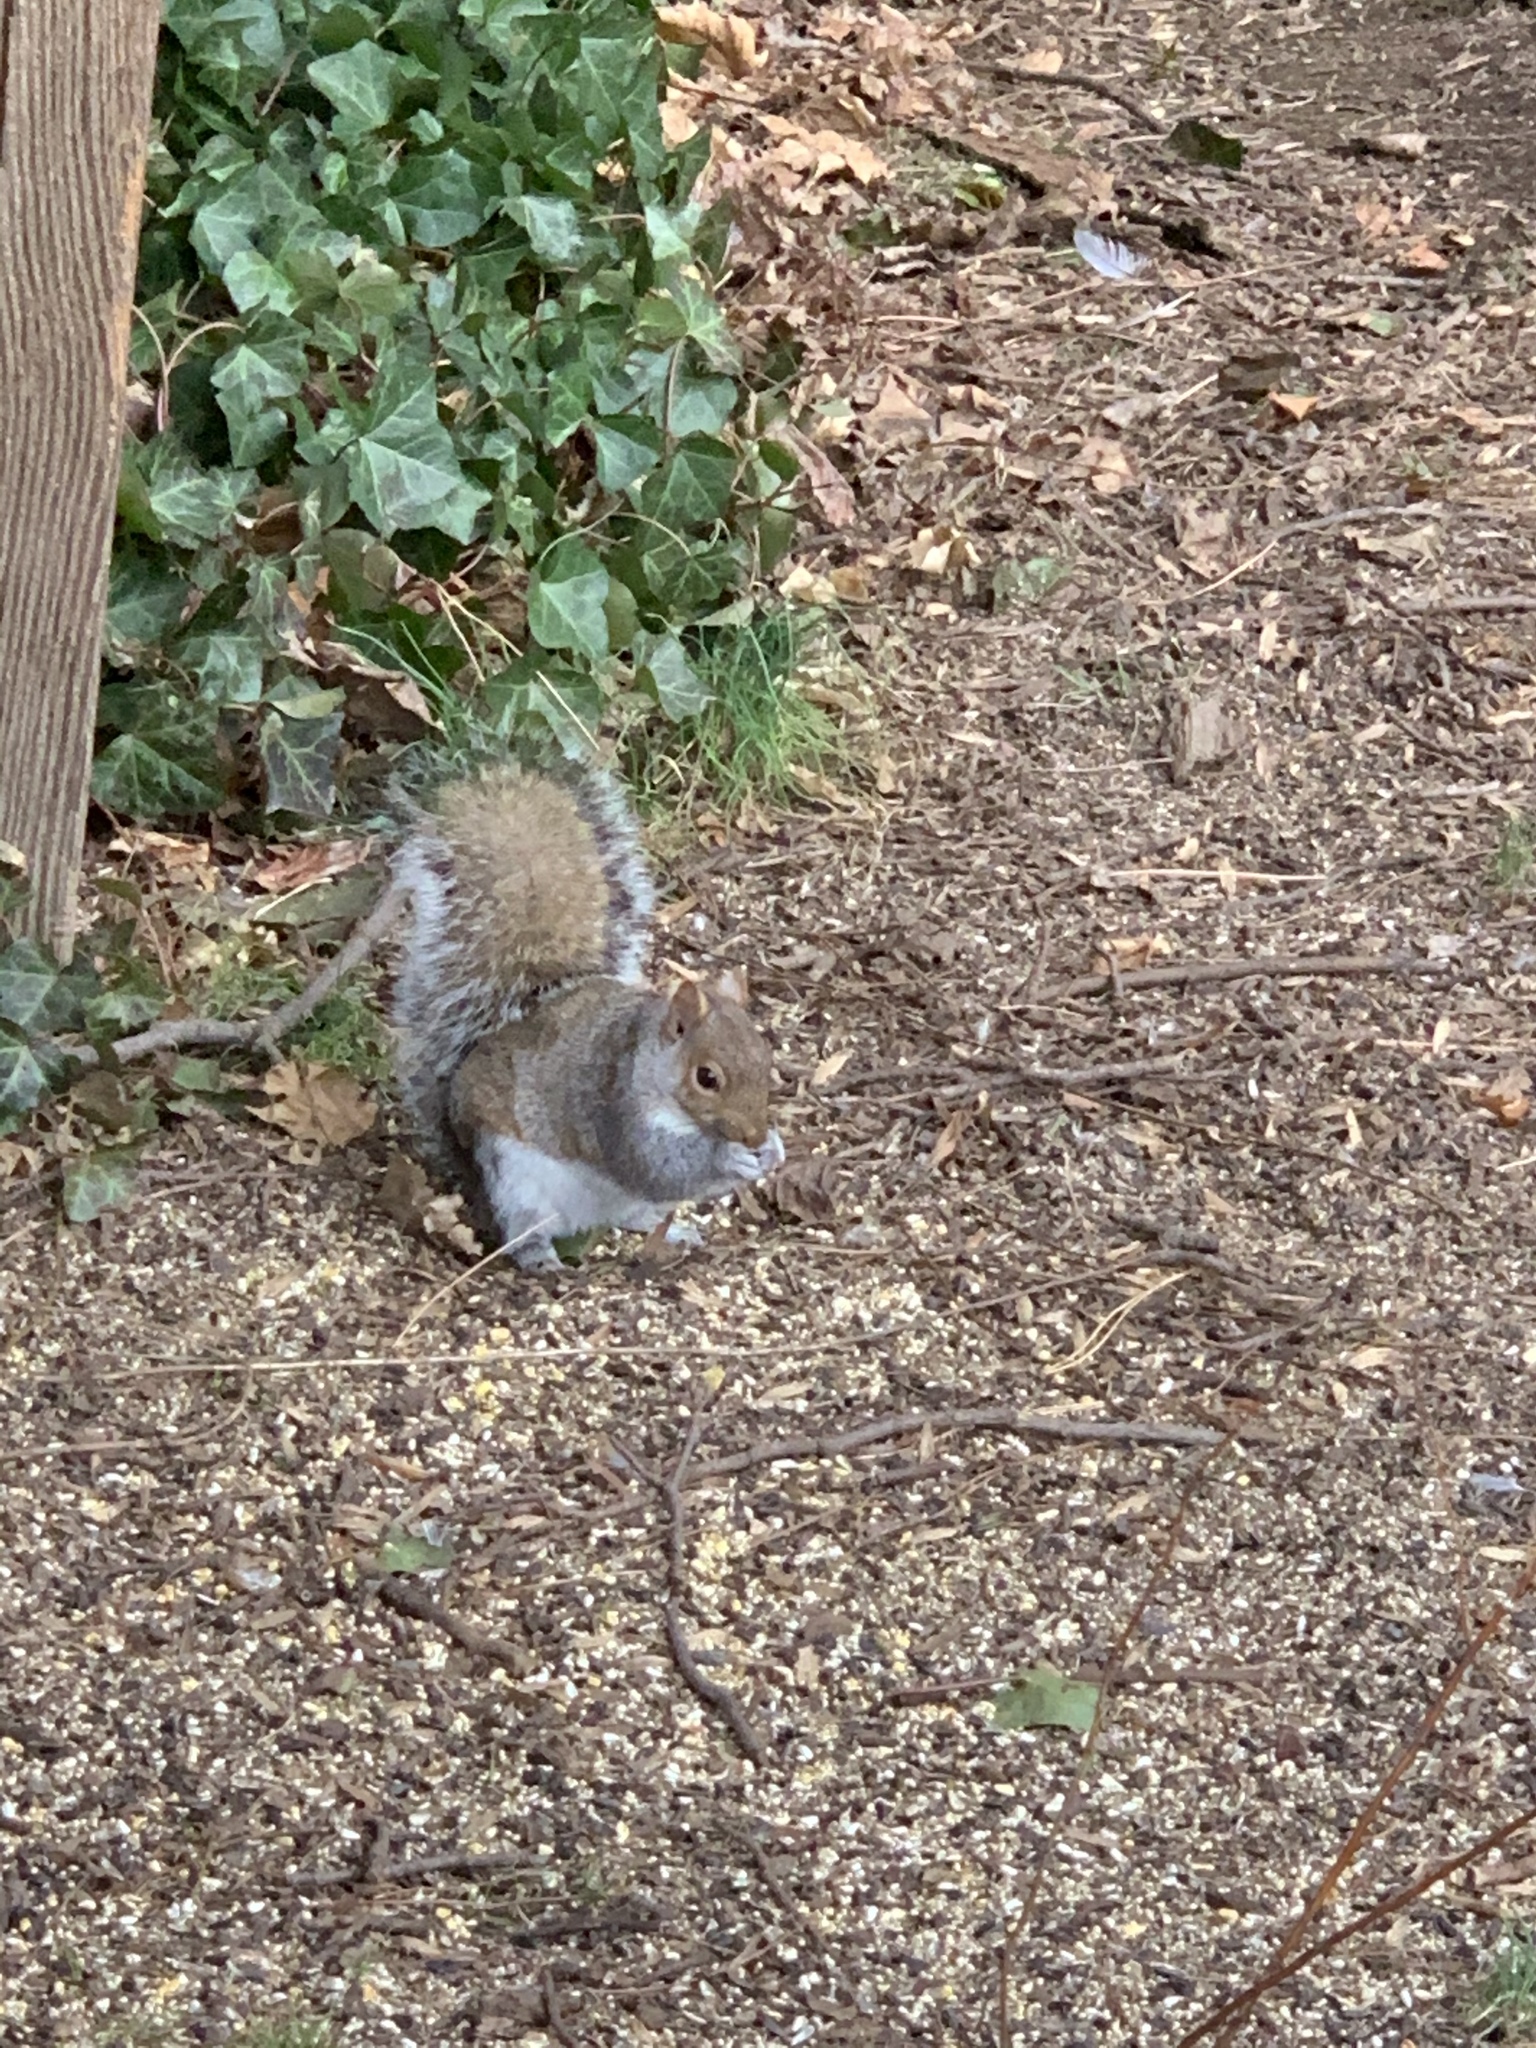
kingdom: Animalia
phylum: Chordata
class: Mammalia
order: Rodentia
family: Sciuridae
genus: Sciurus
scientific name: Sciurus carolinensis
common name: Eastern gray squirrel
